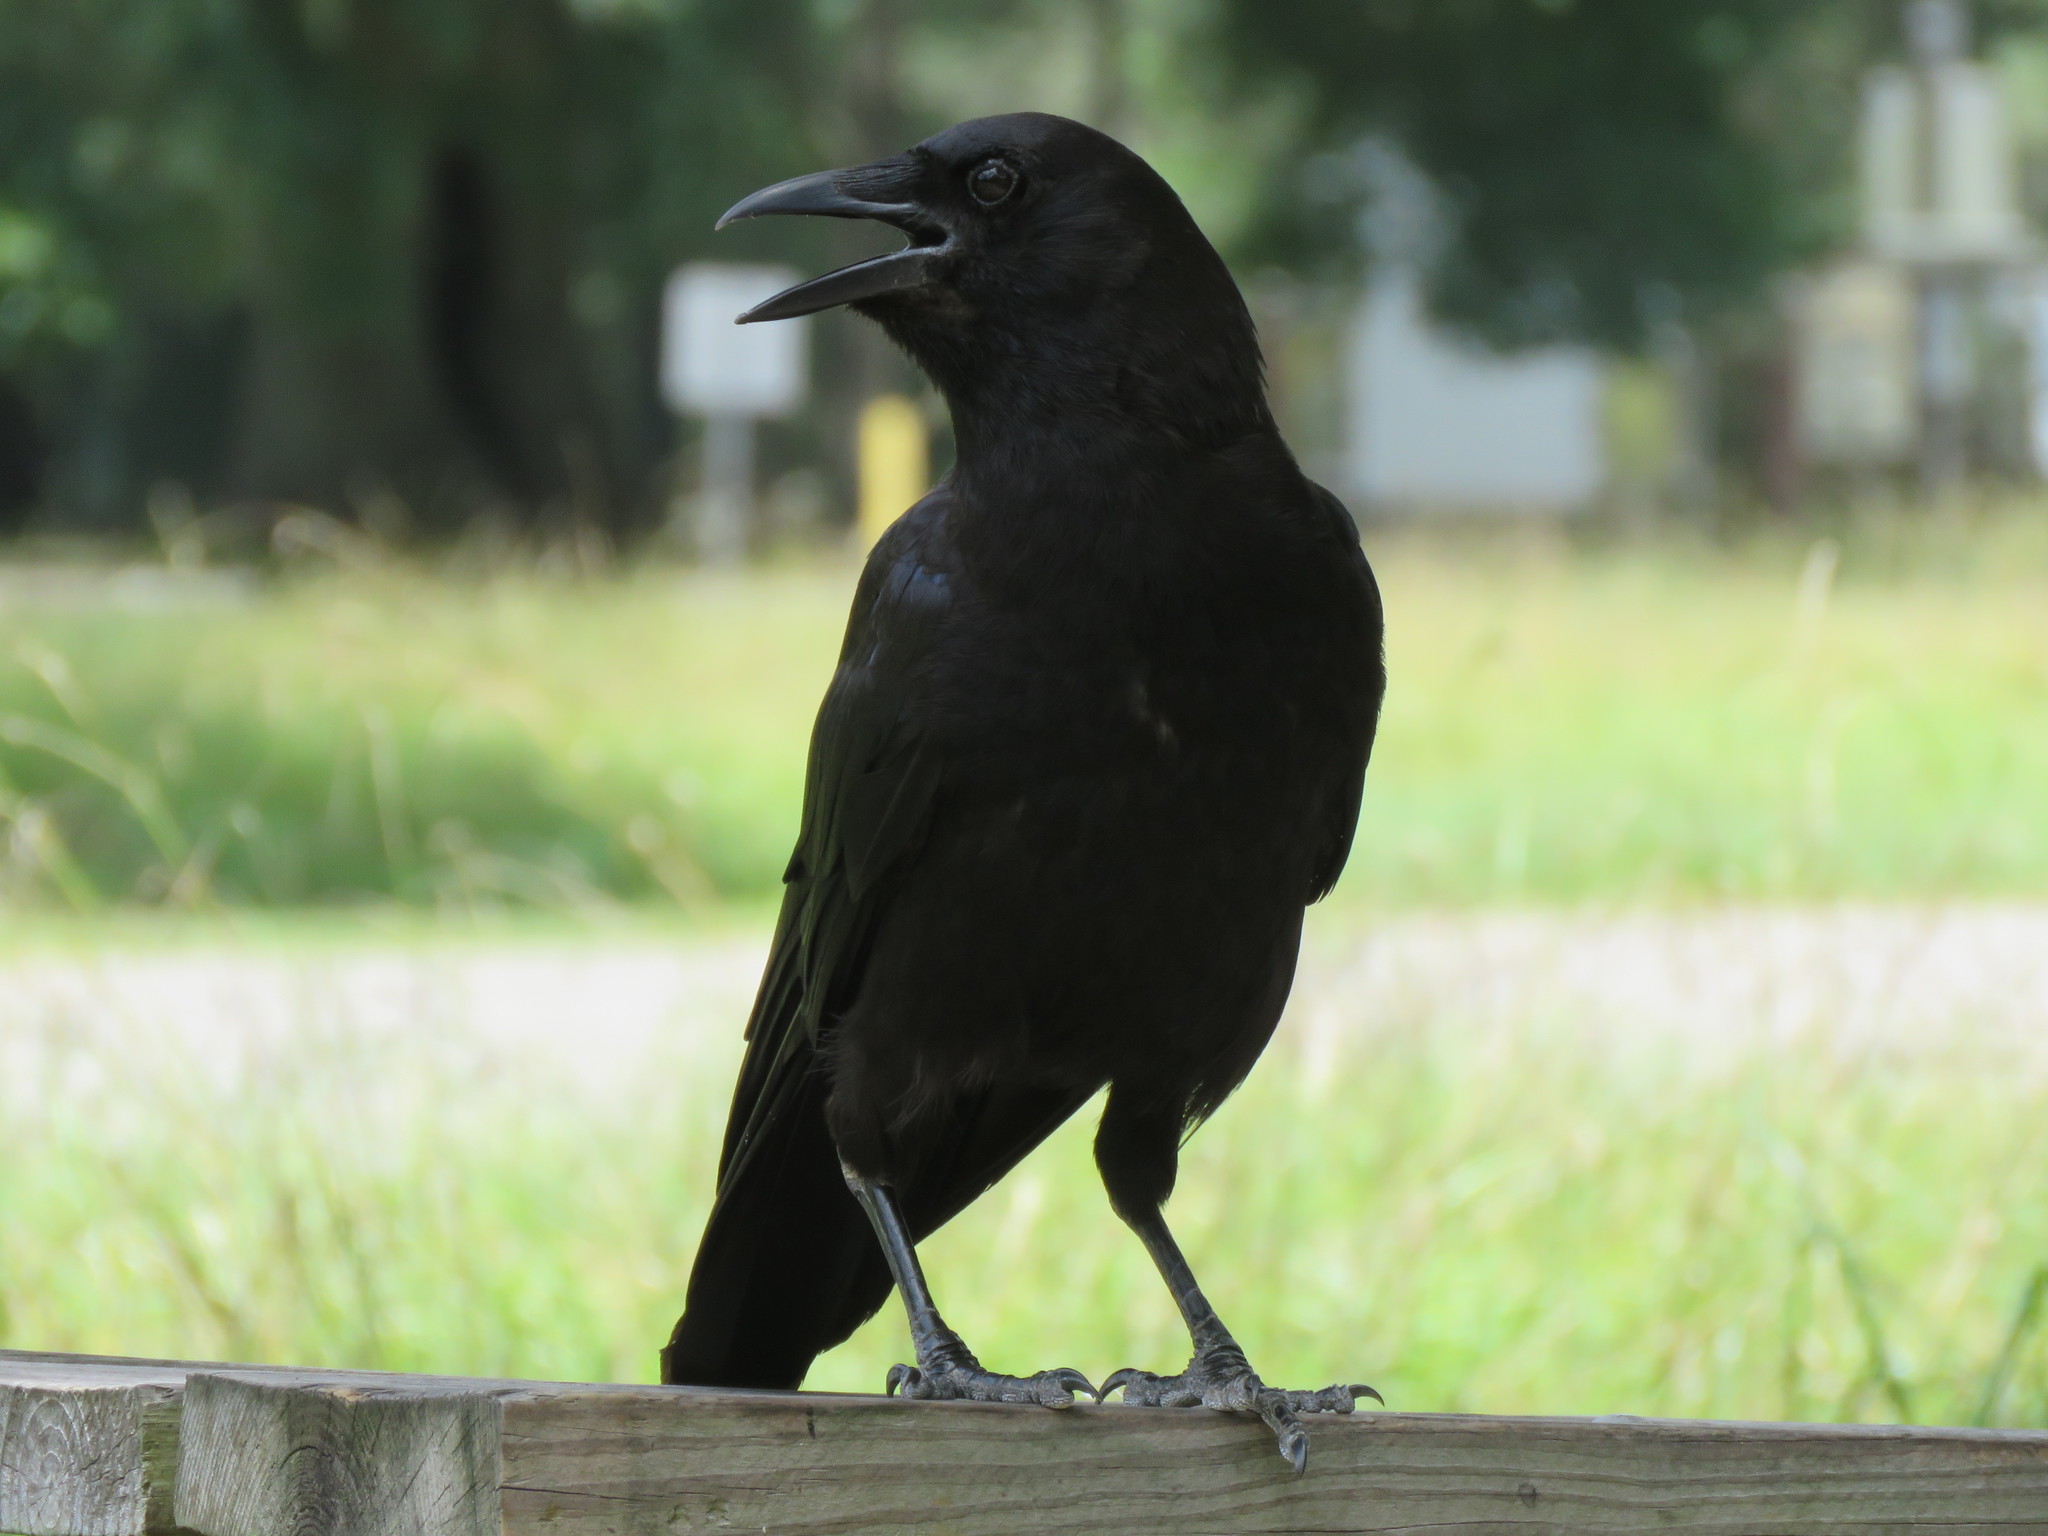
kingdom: Animalia
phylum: Chordata
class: Aves
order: Passeriformes
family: Corvidae
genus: Corvus
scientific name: Corvus brachyrhynchos
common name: American crow
